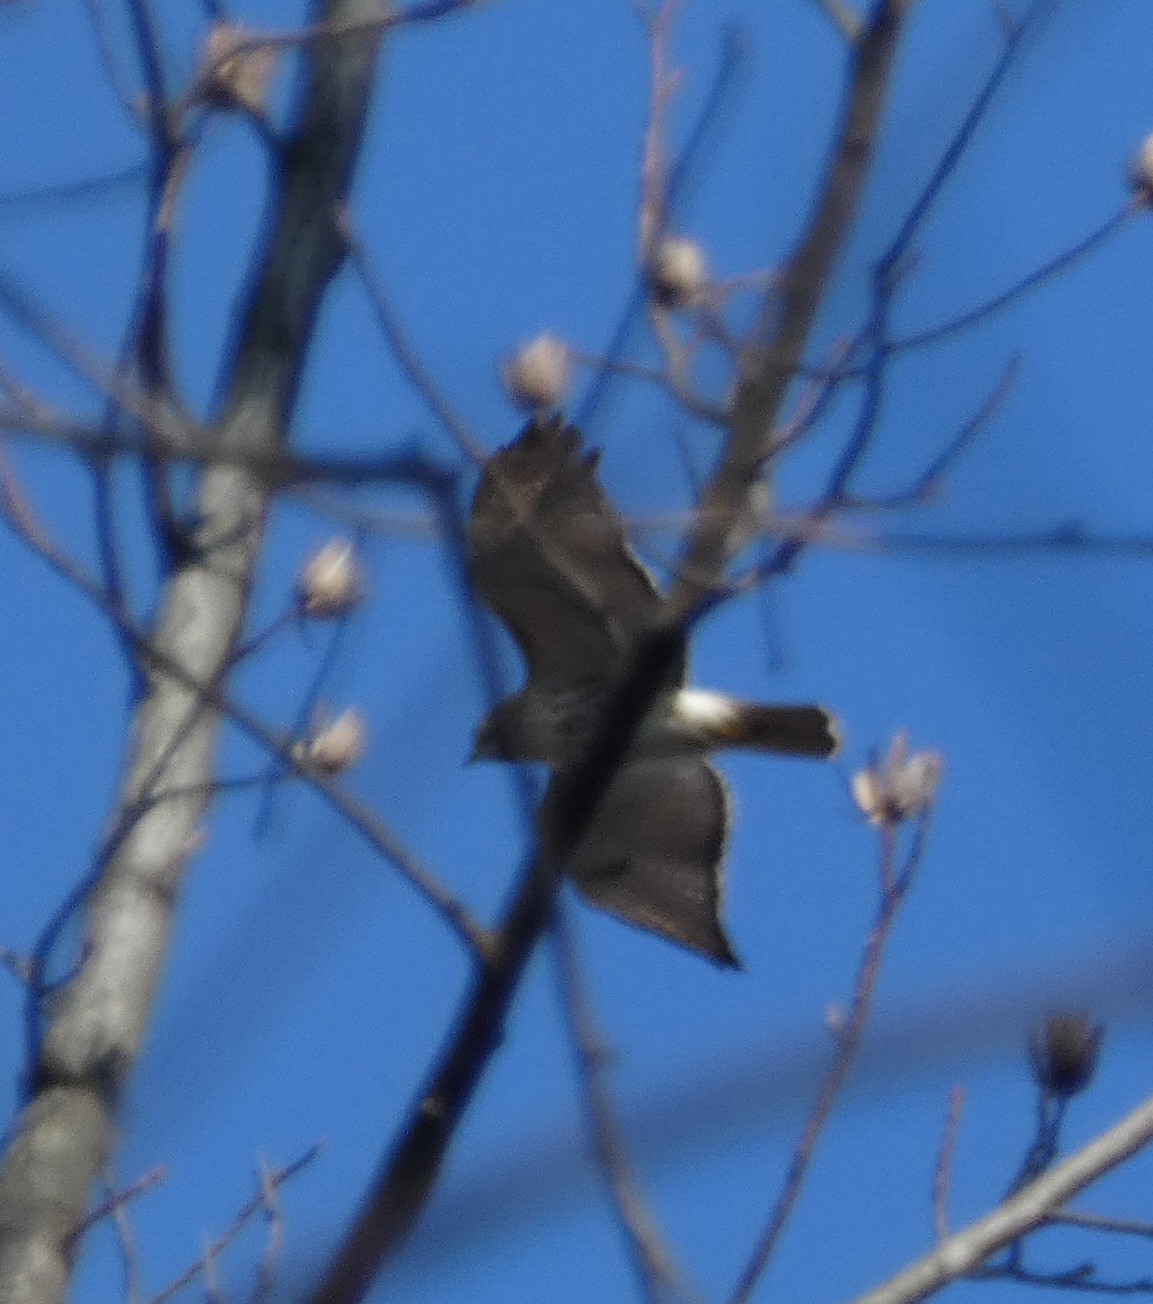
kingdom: Animalia
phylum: Chordata
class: Aves
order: Accipitriformes
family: Accipitridae
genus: Buteo
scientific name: Buteo jamaicensis
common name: Red-tailed hawk
